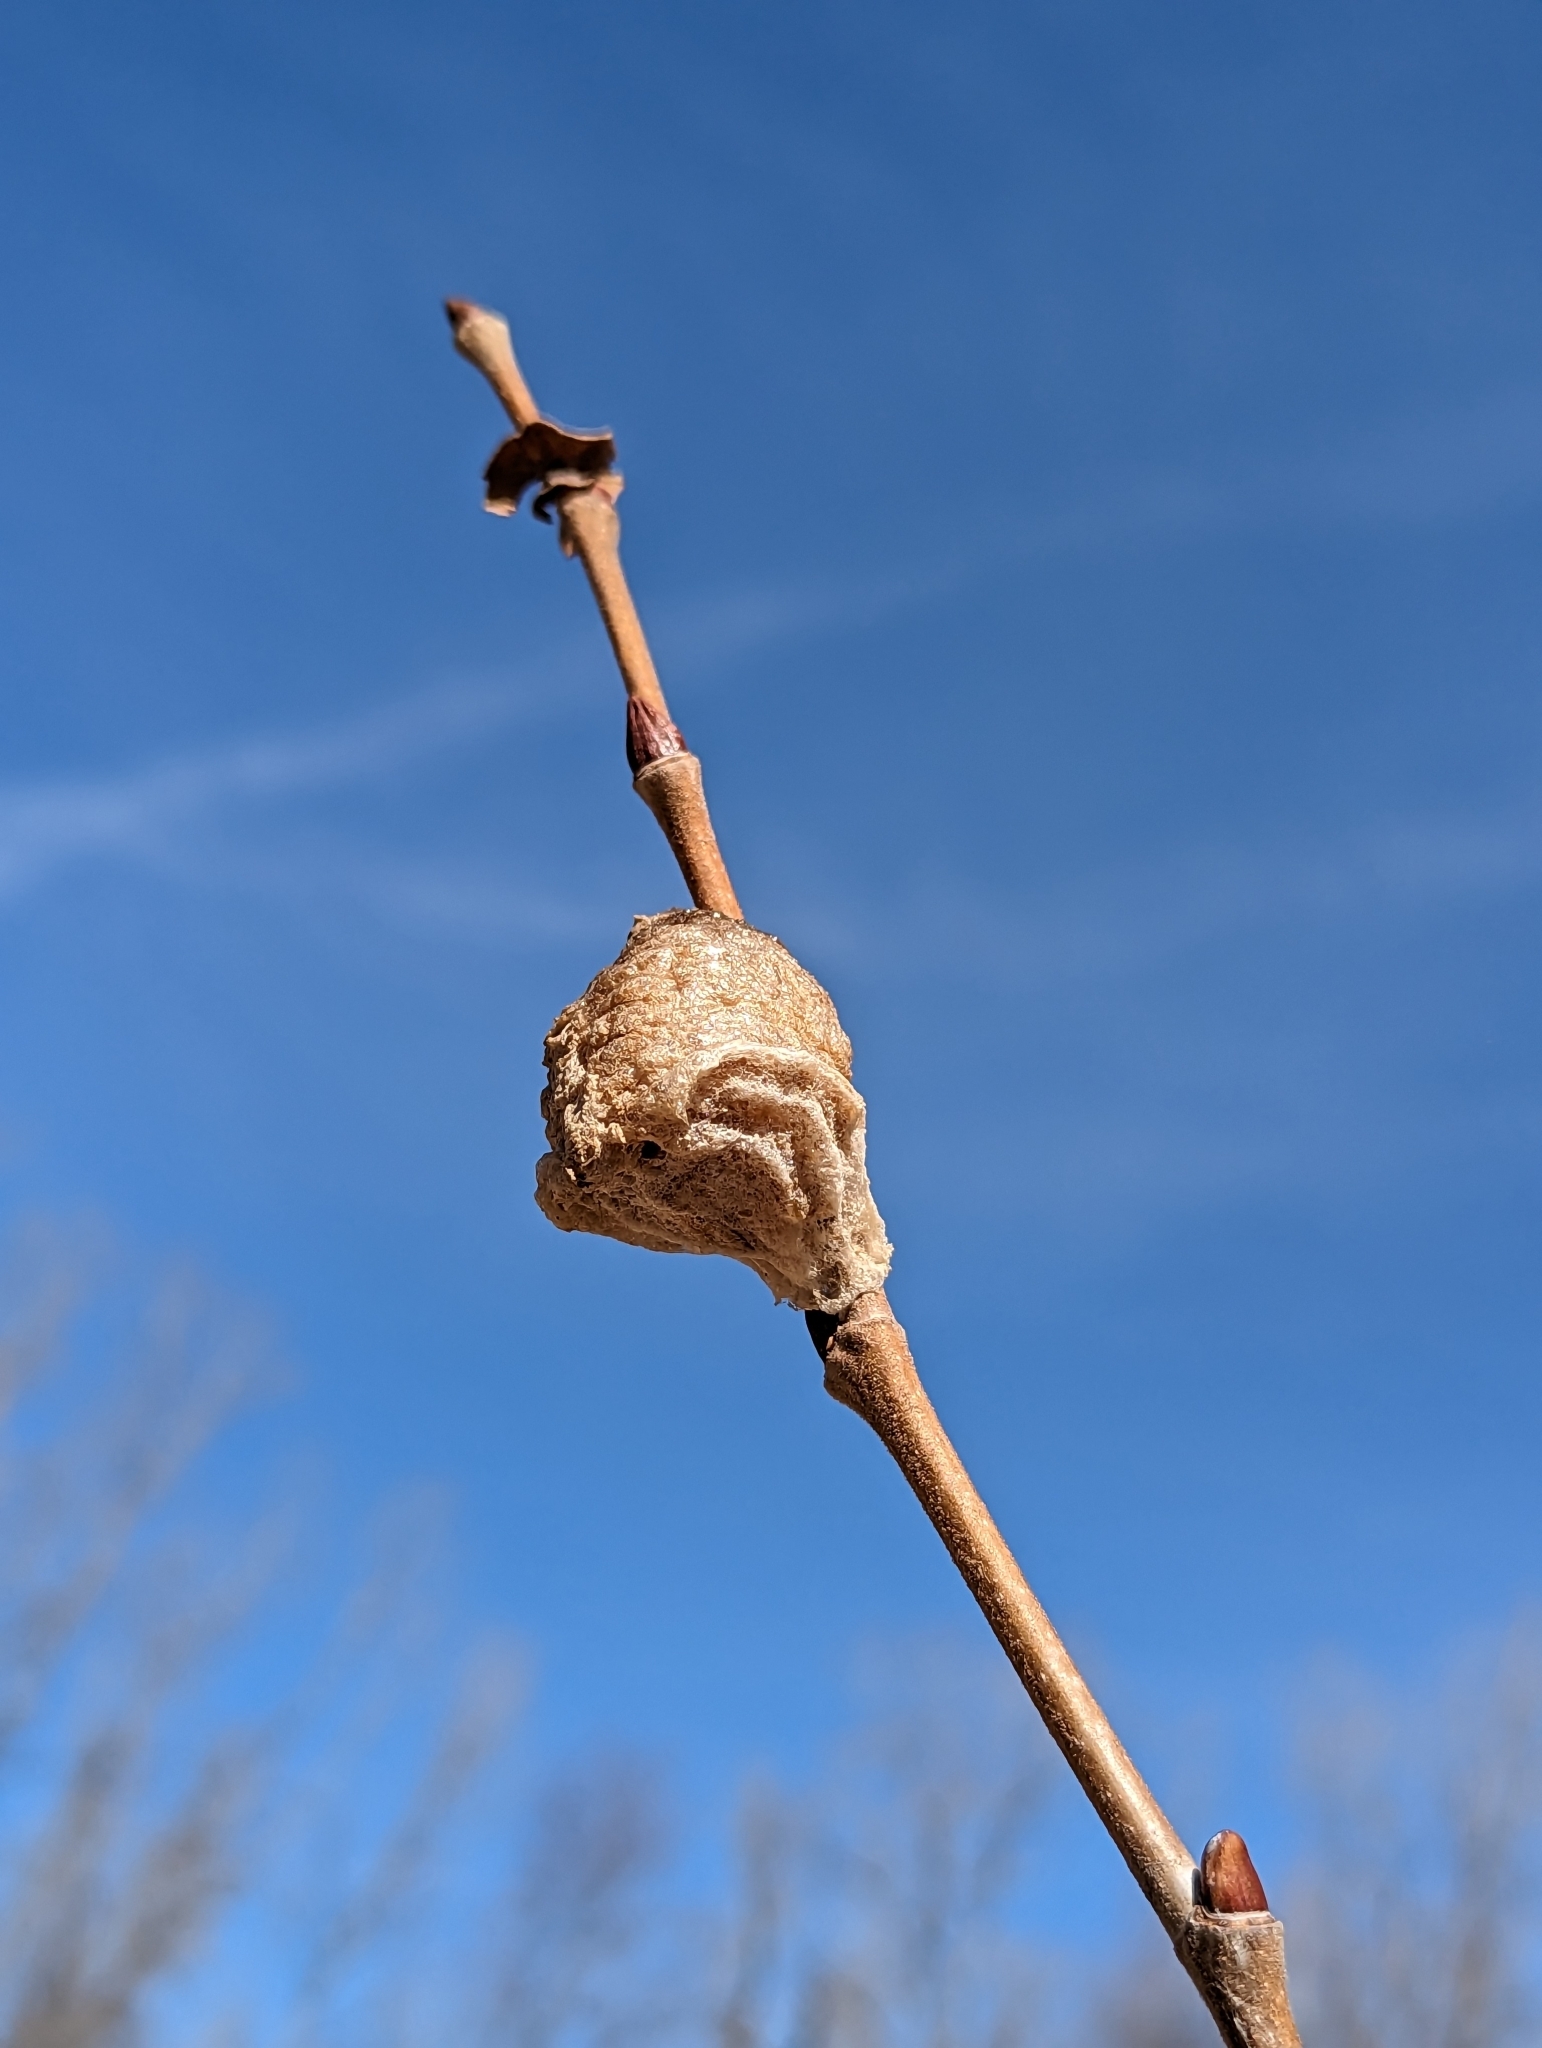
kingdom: Animalia
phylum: Arthropoda
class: Insecta
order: Mantodea
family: Mantidae
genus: Tenodera
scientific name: Tenodera sinensis
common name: Chinese mantis
